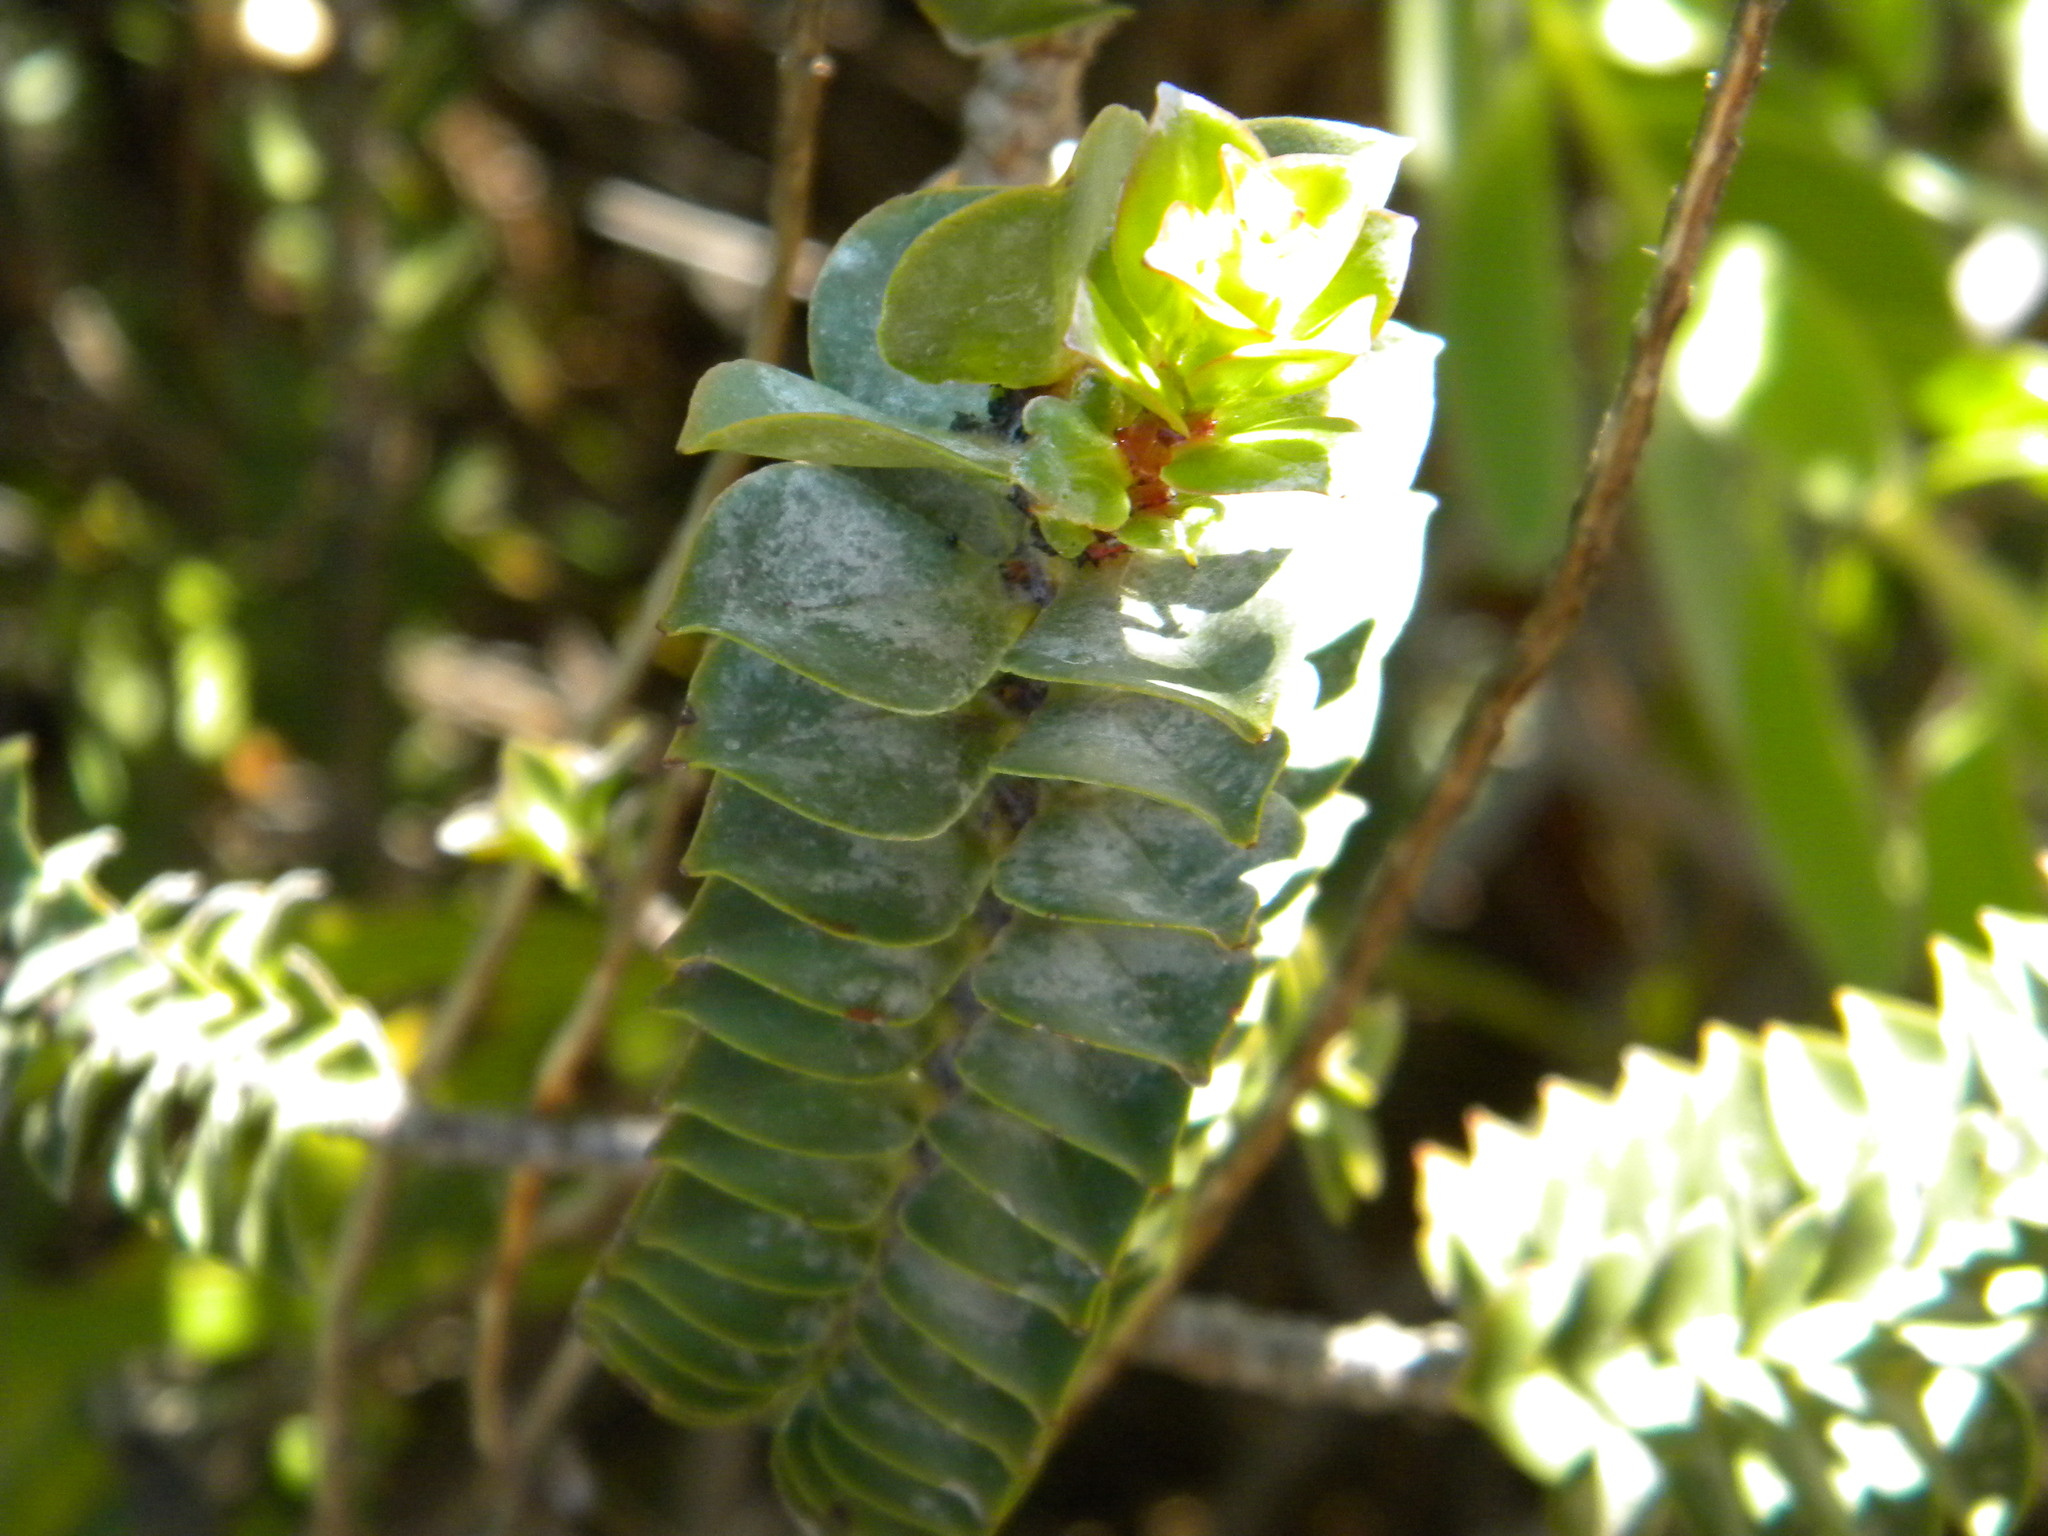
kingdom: Plantae
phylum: Tracheophyta
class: Magnoliopsida
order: Myrtales
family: Penaeaceae
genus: Saltera
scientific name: Saltera sarcocolla
